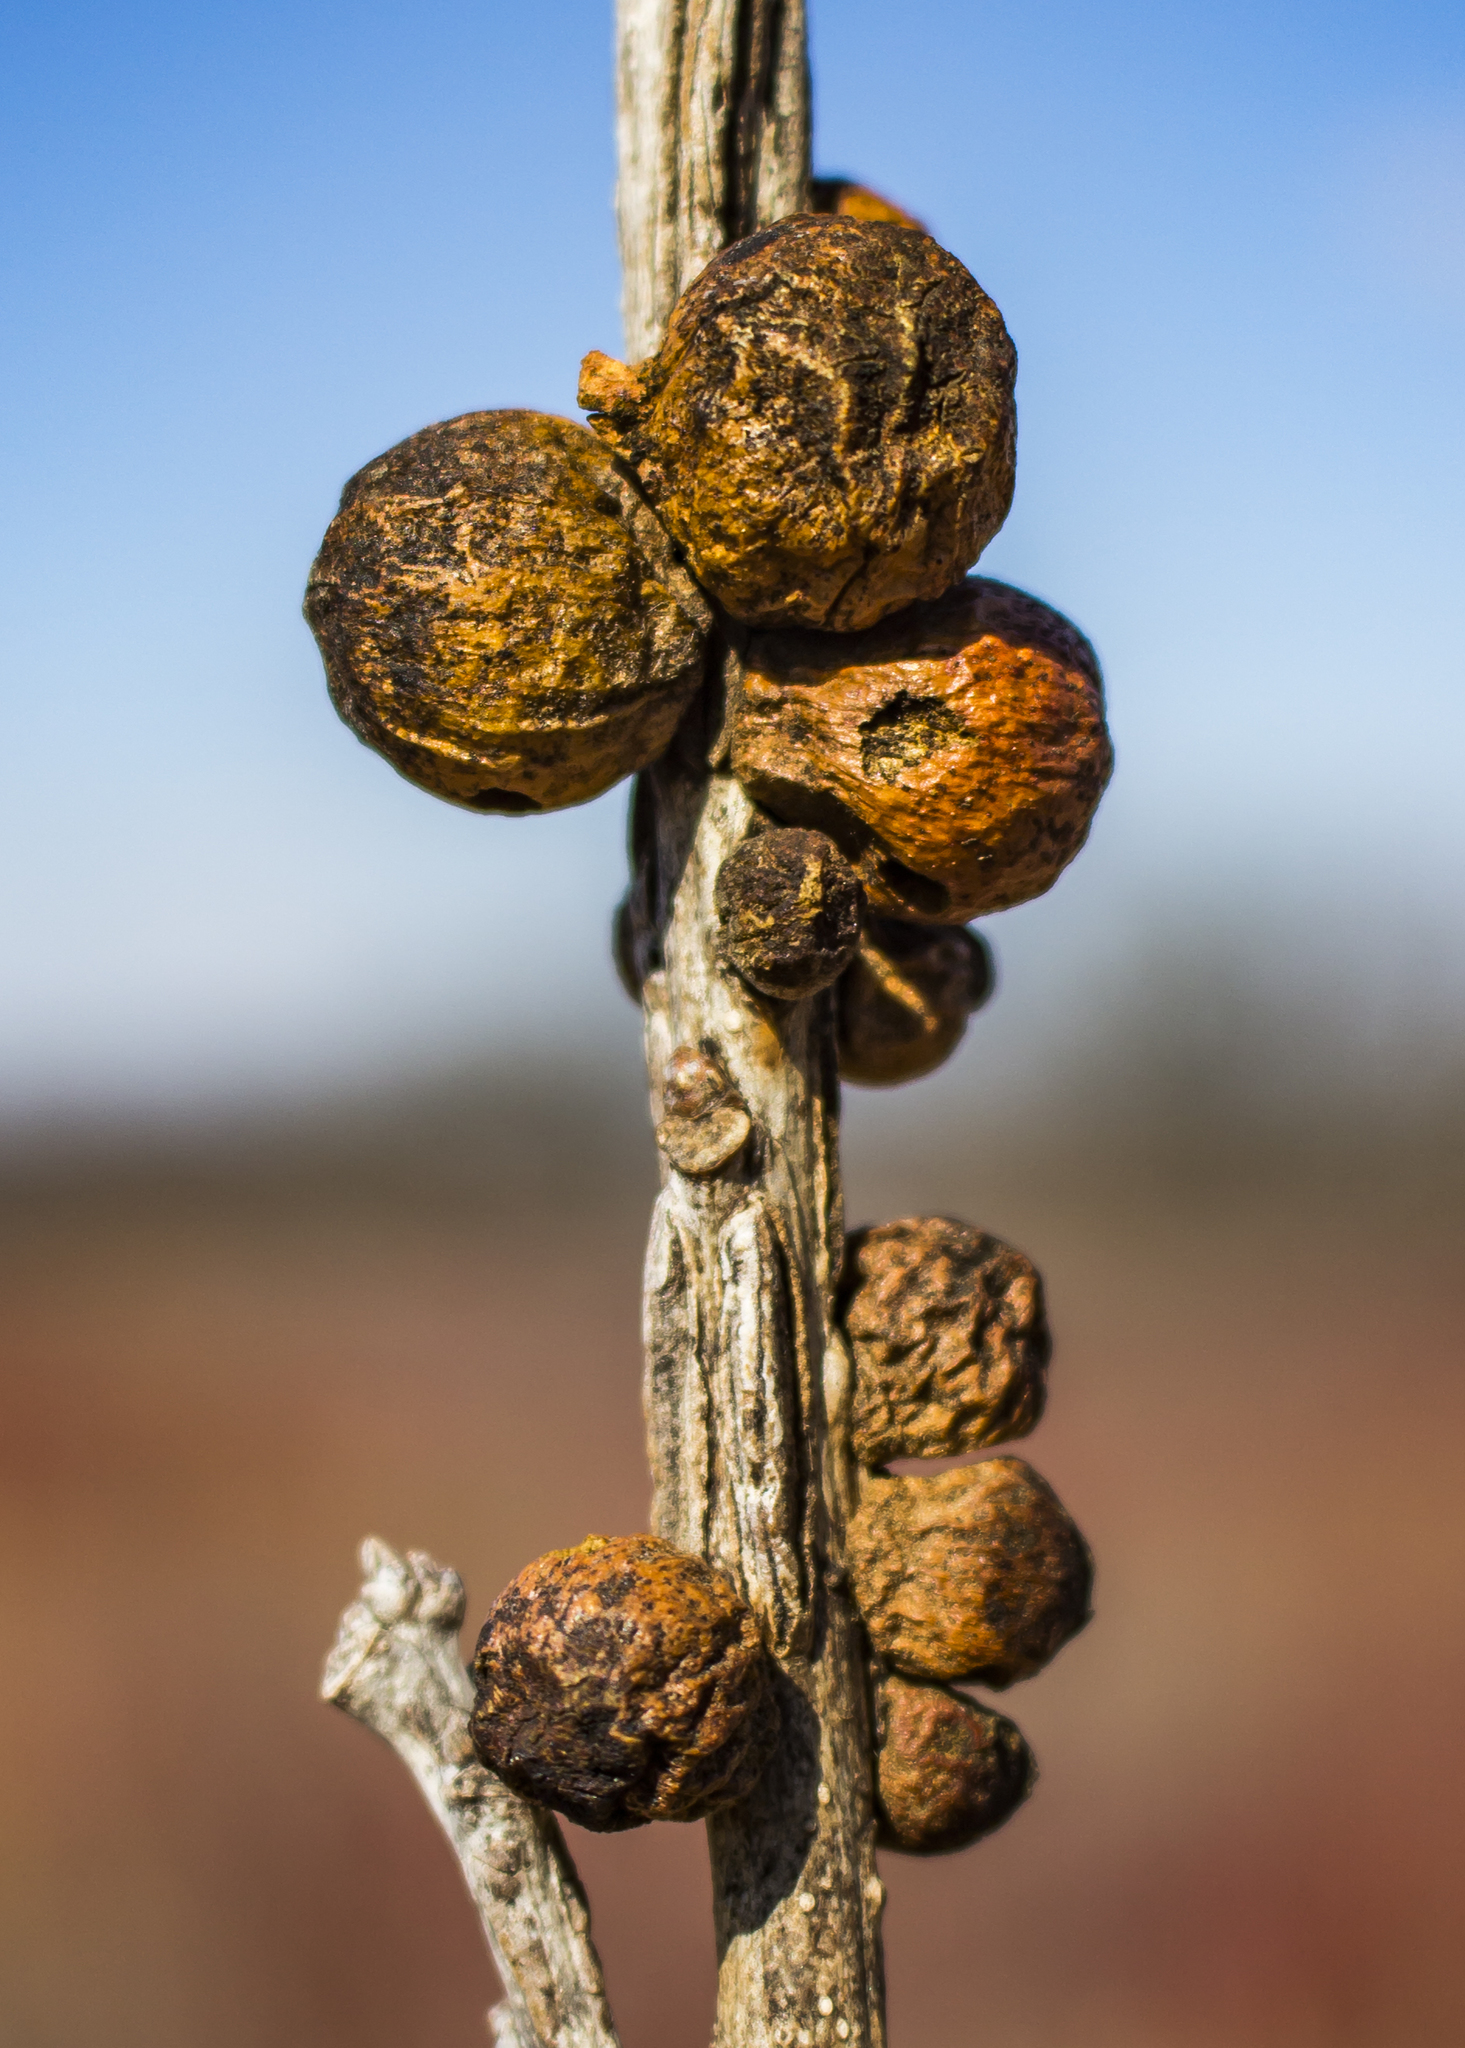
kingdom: Animalia
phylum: Arthropoda
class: Insecta
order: Hymenoptera
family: Cynipidae
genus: Disholcaspis
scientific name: Disholcaspis
